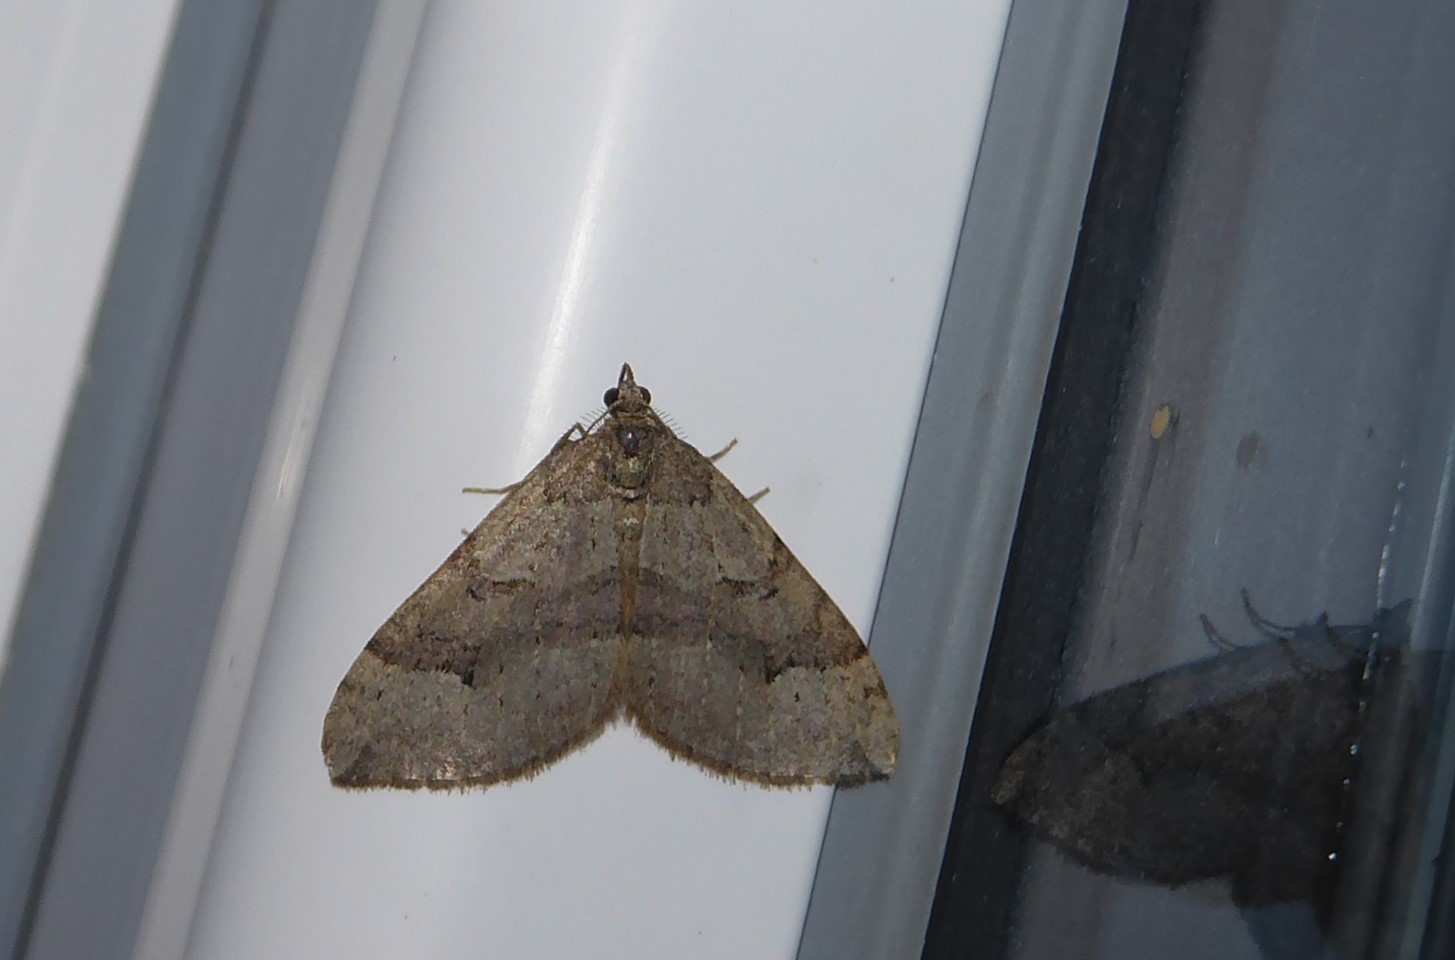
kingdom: Animalia
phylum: Arthropoda
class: Insecta
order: Lepidoptera
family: Geometridae
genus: Epyaxa
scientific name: Epyaxa rosearia
